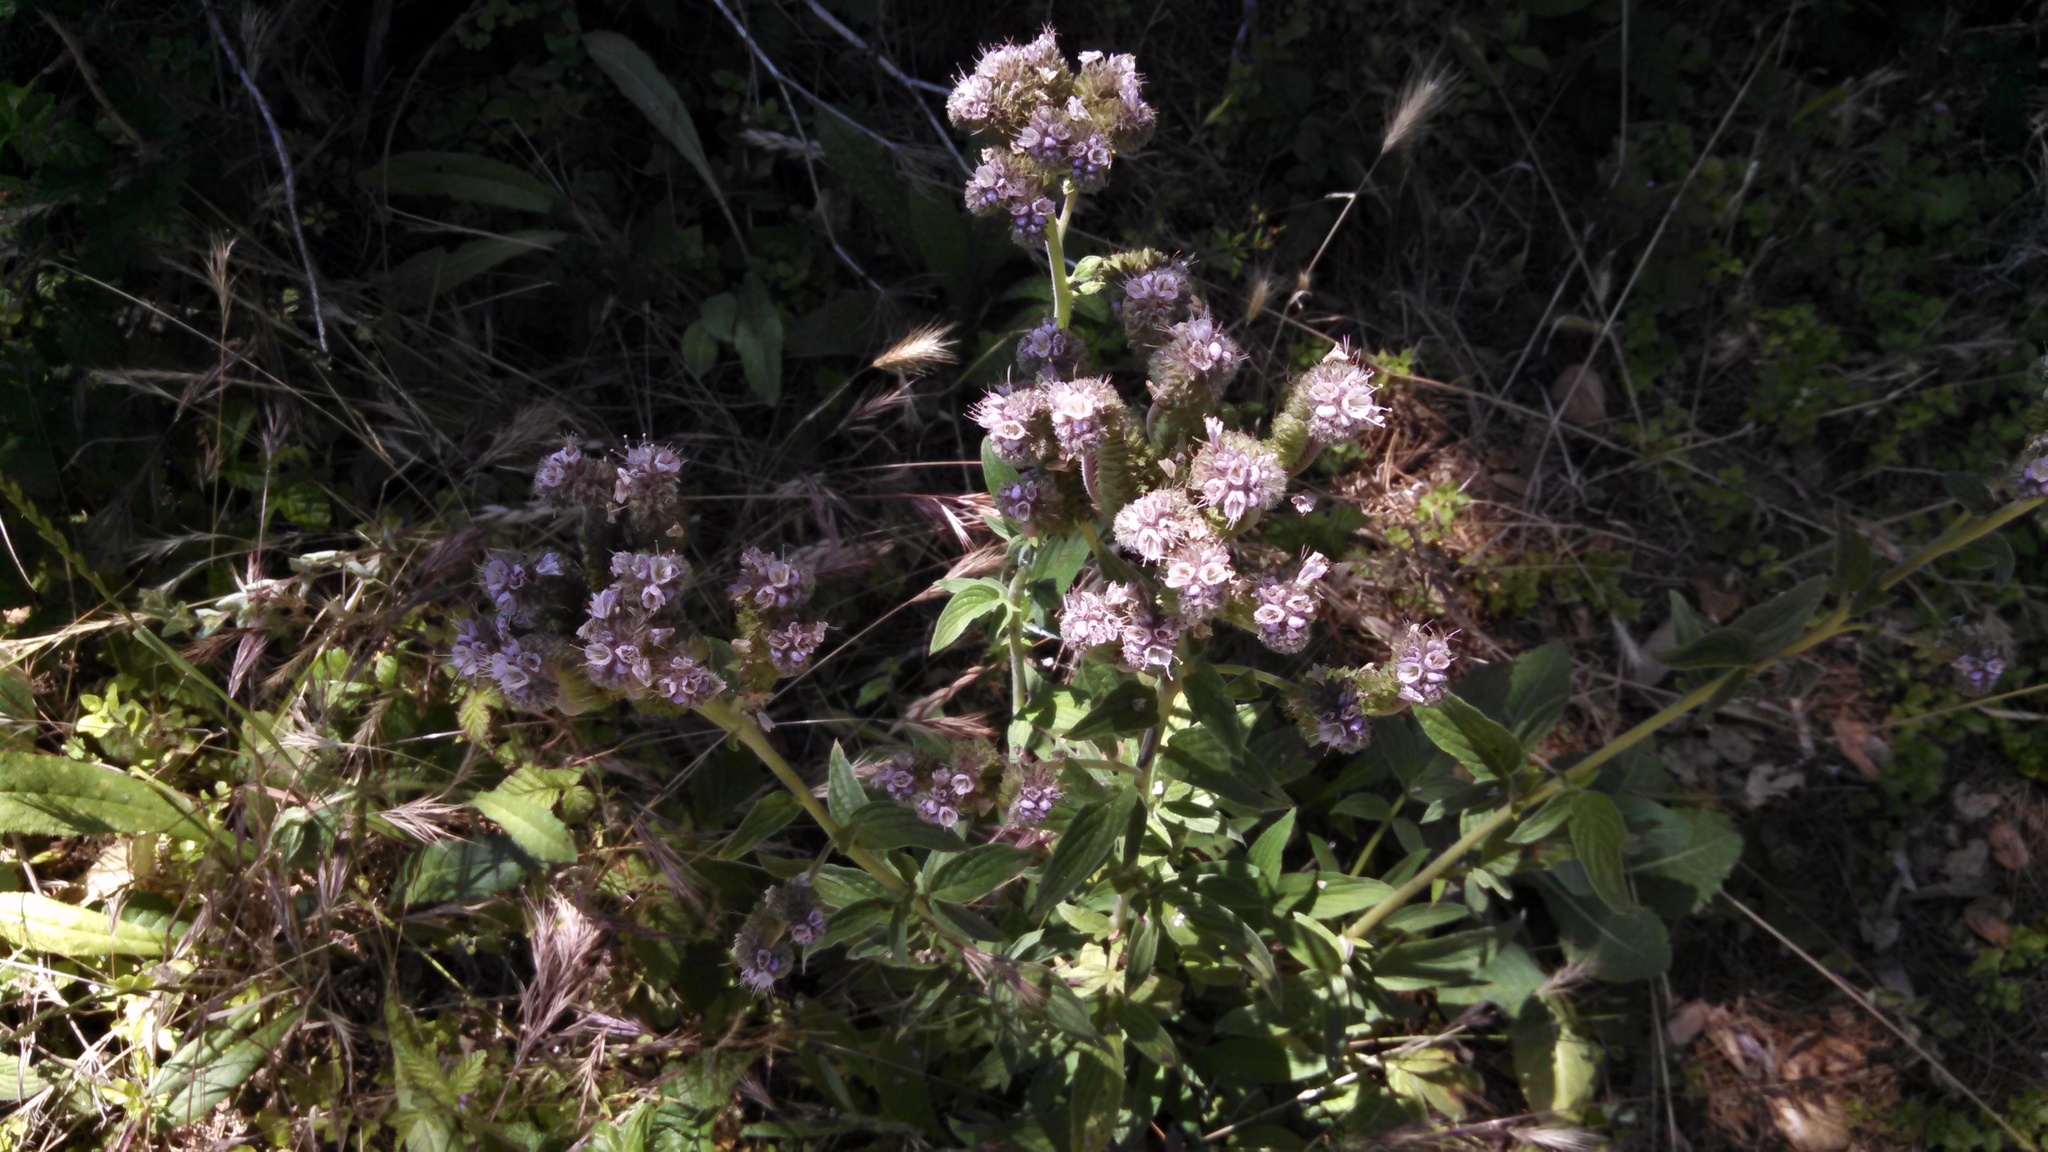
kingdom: Plantae
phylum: Tracheophyta
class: Magnoliopsida
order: Boraginales
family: Hydrophyllaceae
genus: Phacelia
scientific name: Phacelia californica
